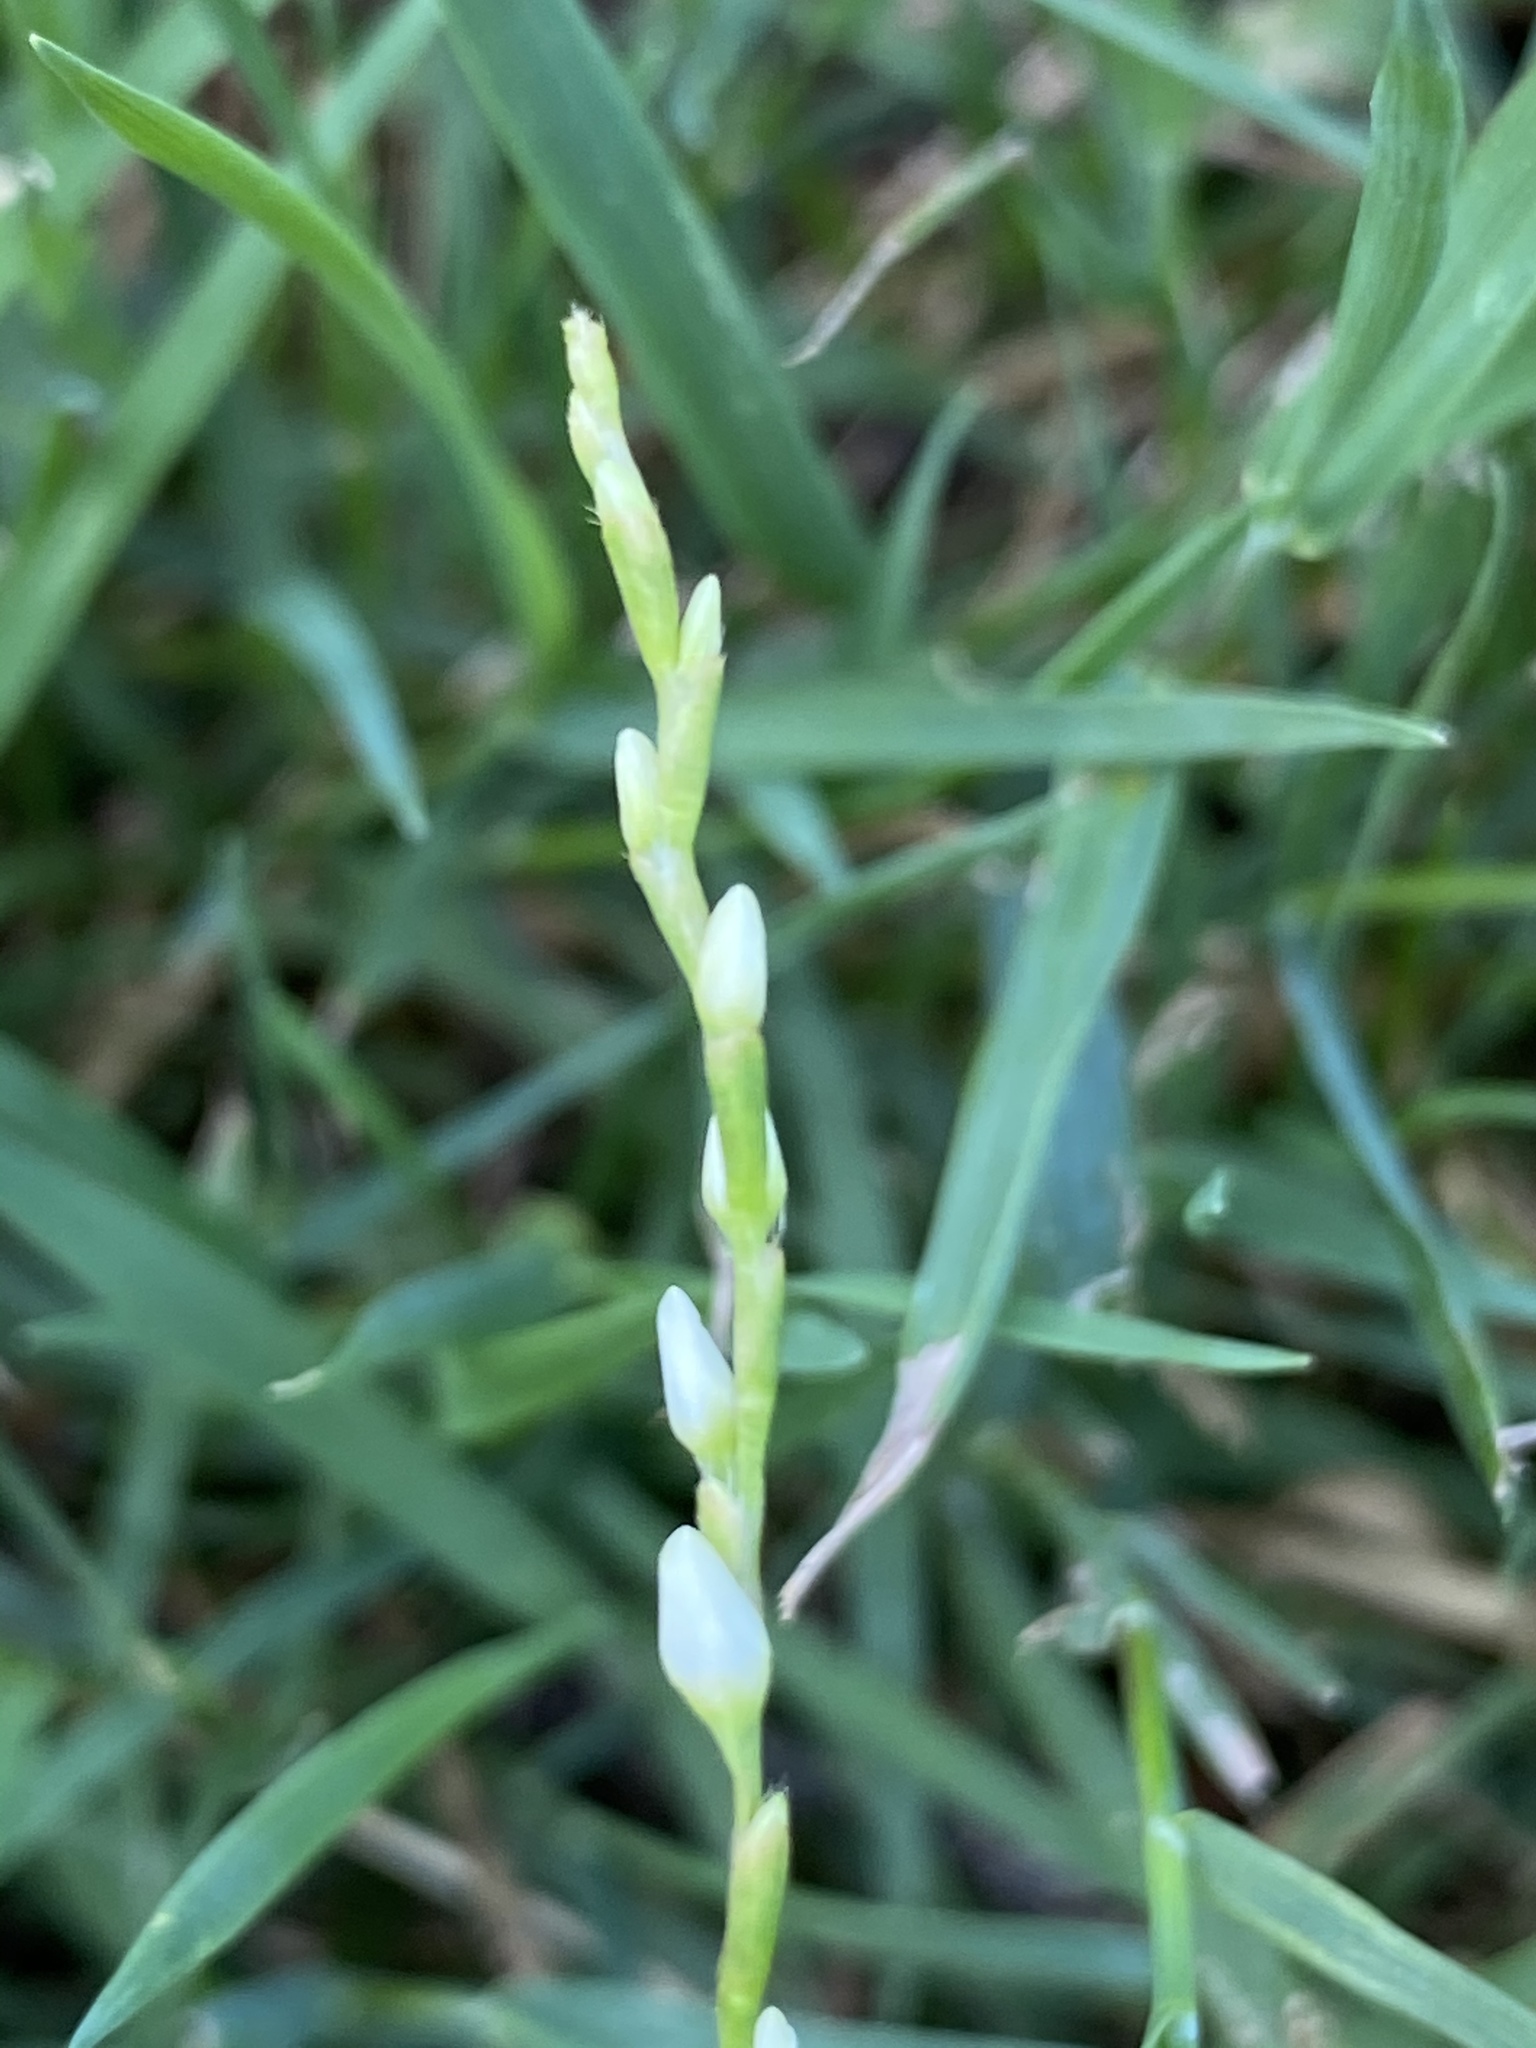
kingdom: Plantae
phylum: Tracheophyta
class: Magnoliopsida
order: Caryophyllales
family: Polygonaceae
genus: Persicaria
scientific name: Persicaria punctata
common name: Dotted smartweed
